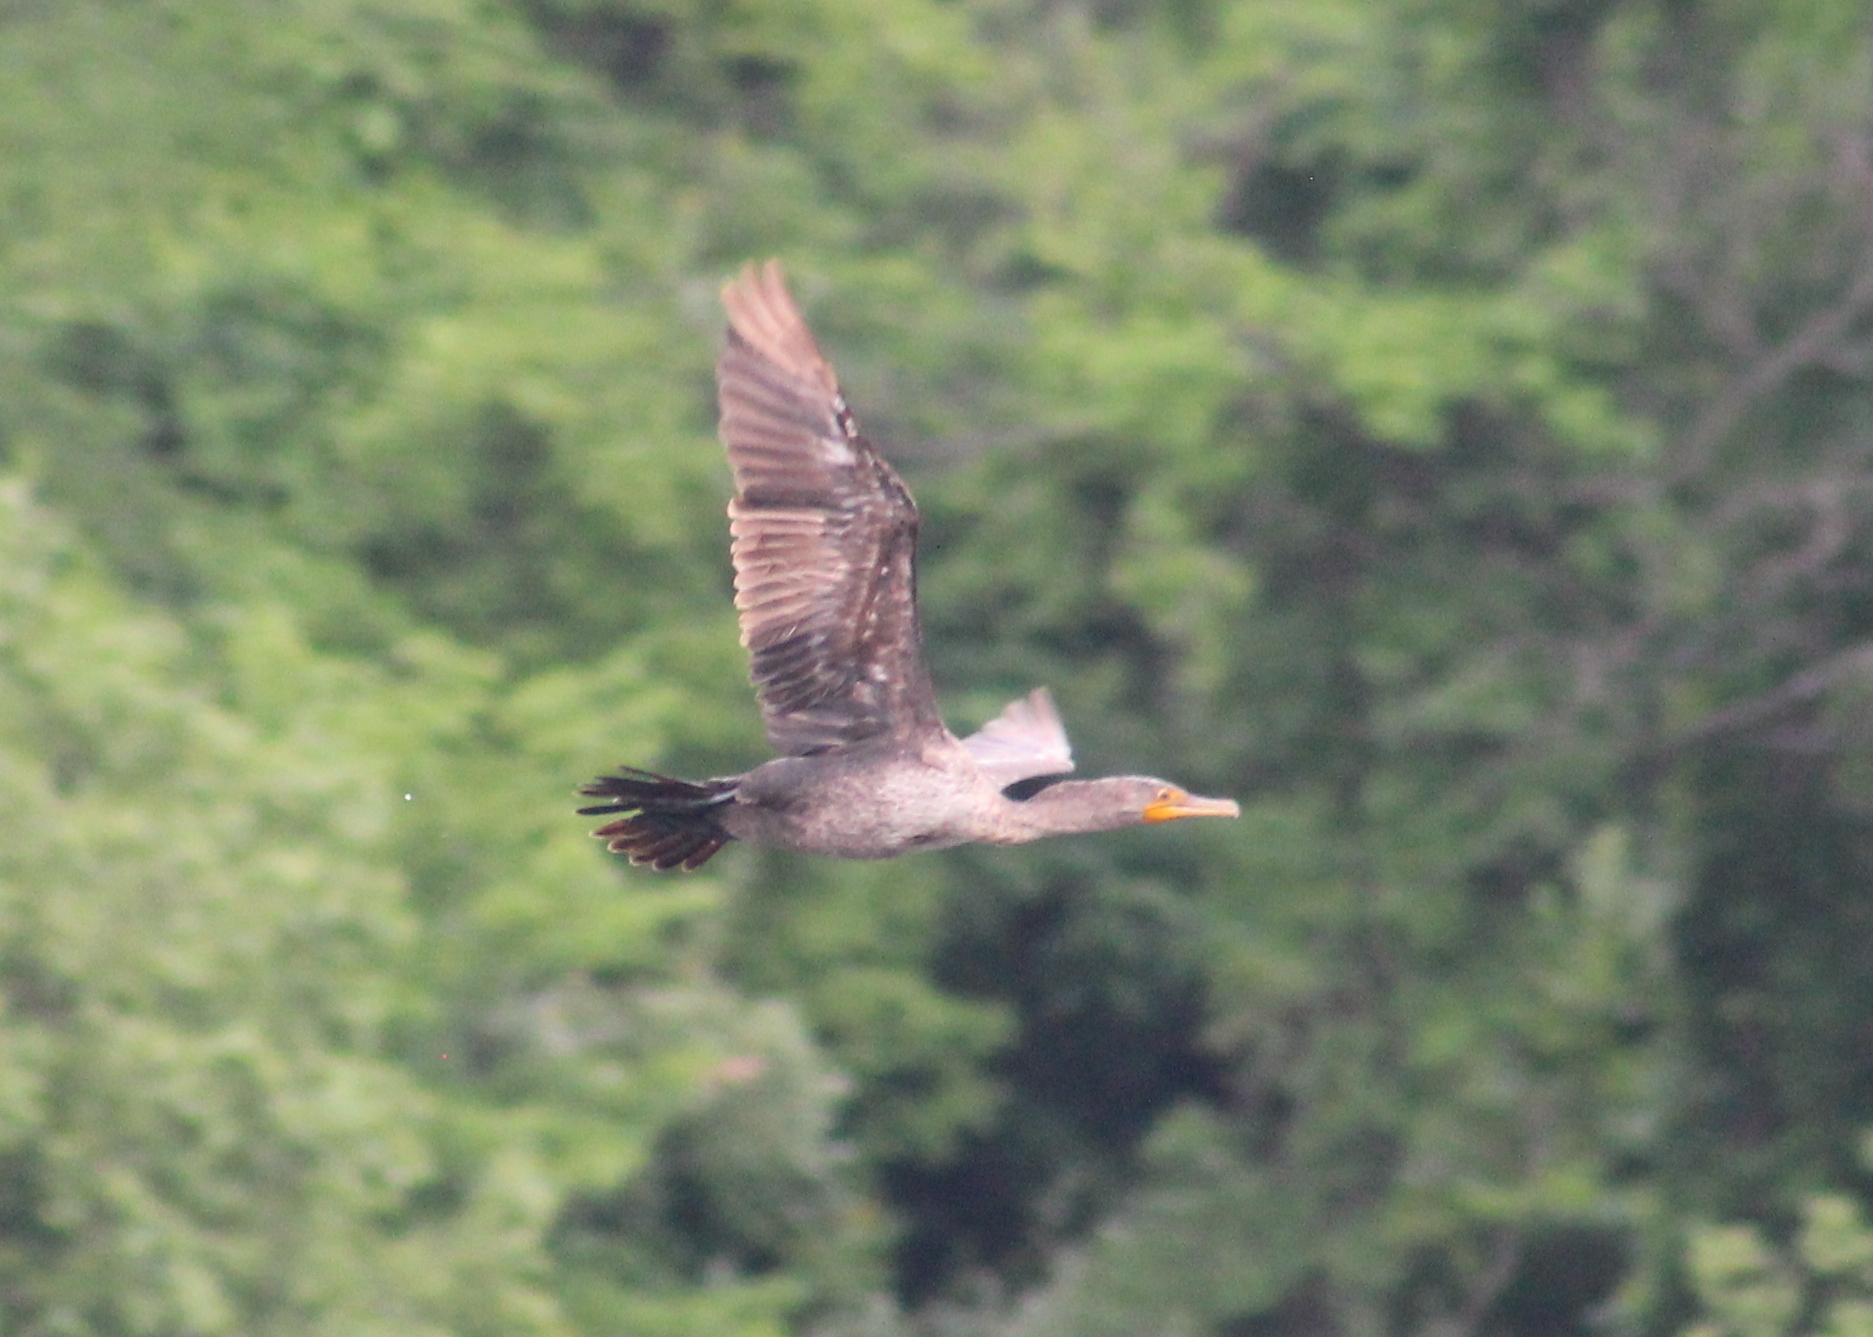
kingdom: Animalia
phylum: Chordata
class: Aves
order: Suliformes
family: Phalacrocoracidae
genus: Phalacrocorax
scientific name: Phalacrocorax auritus
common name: Double-crested cormorant
